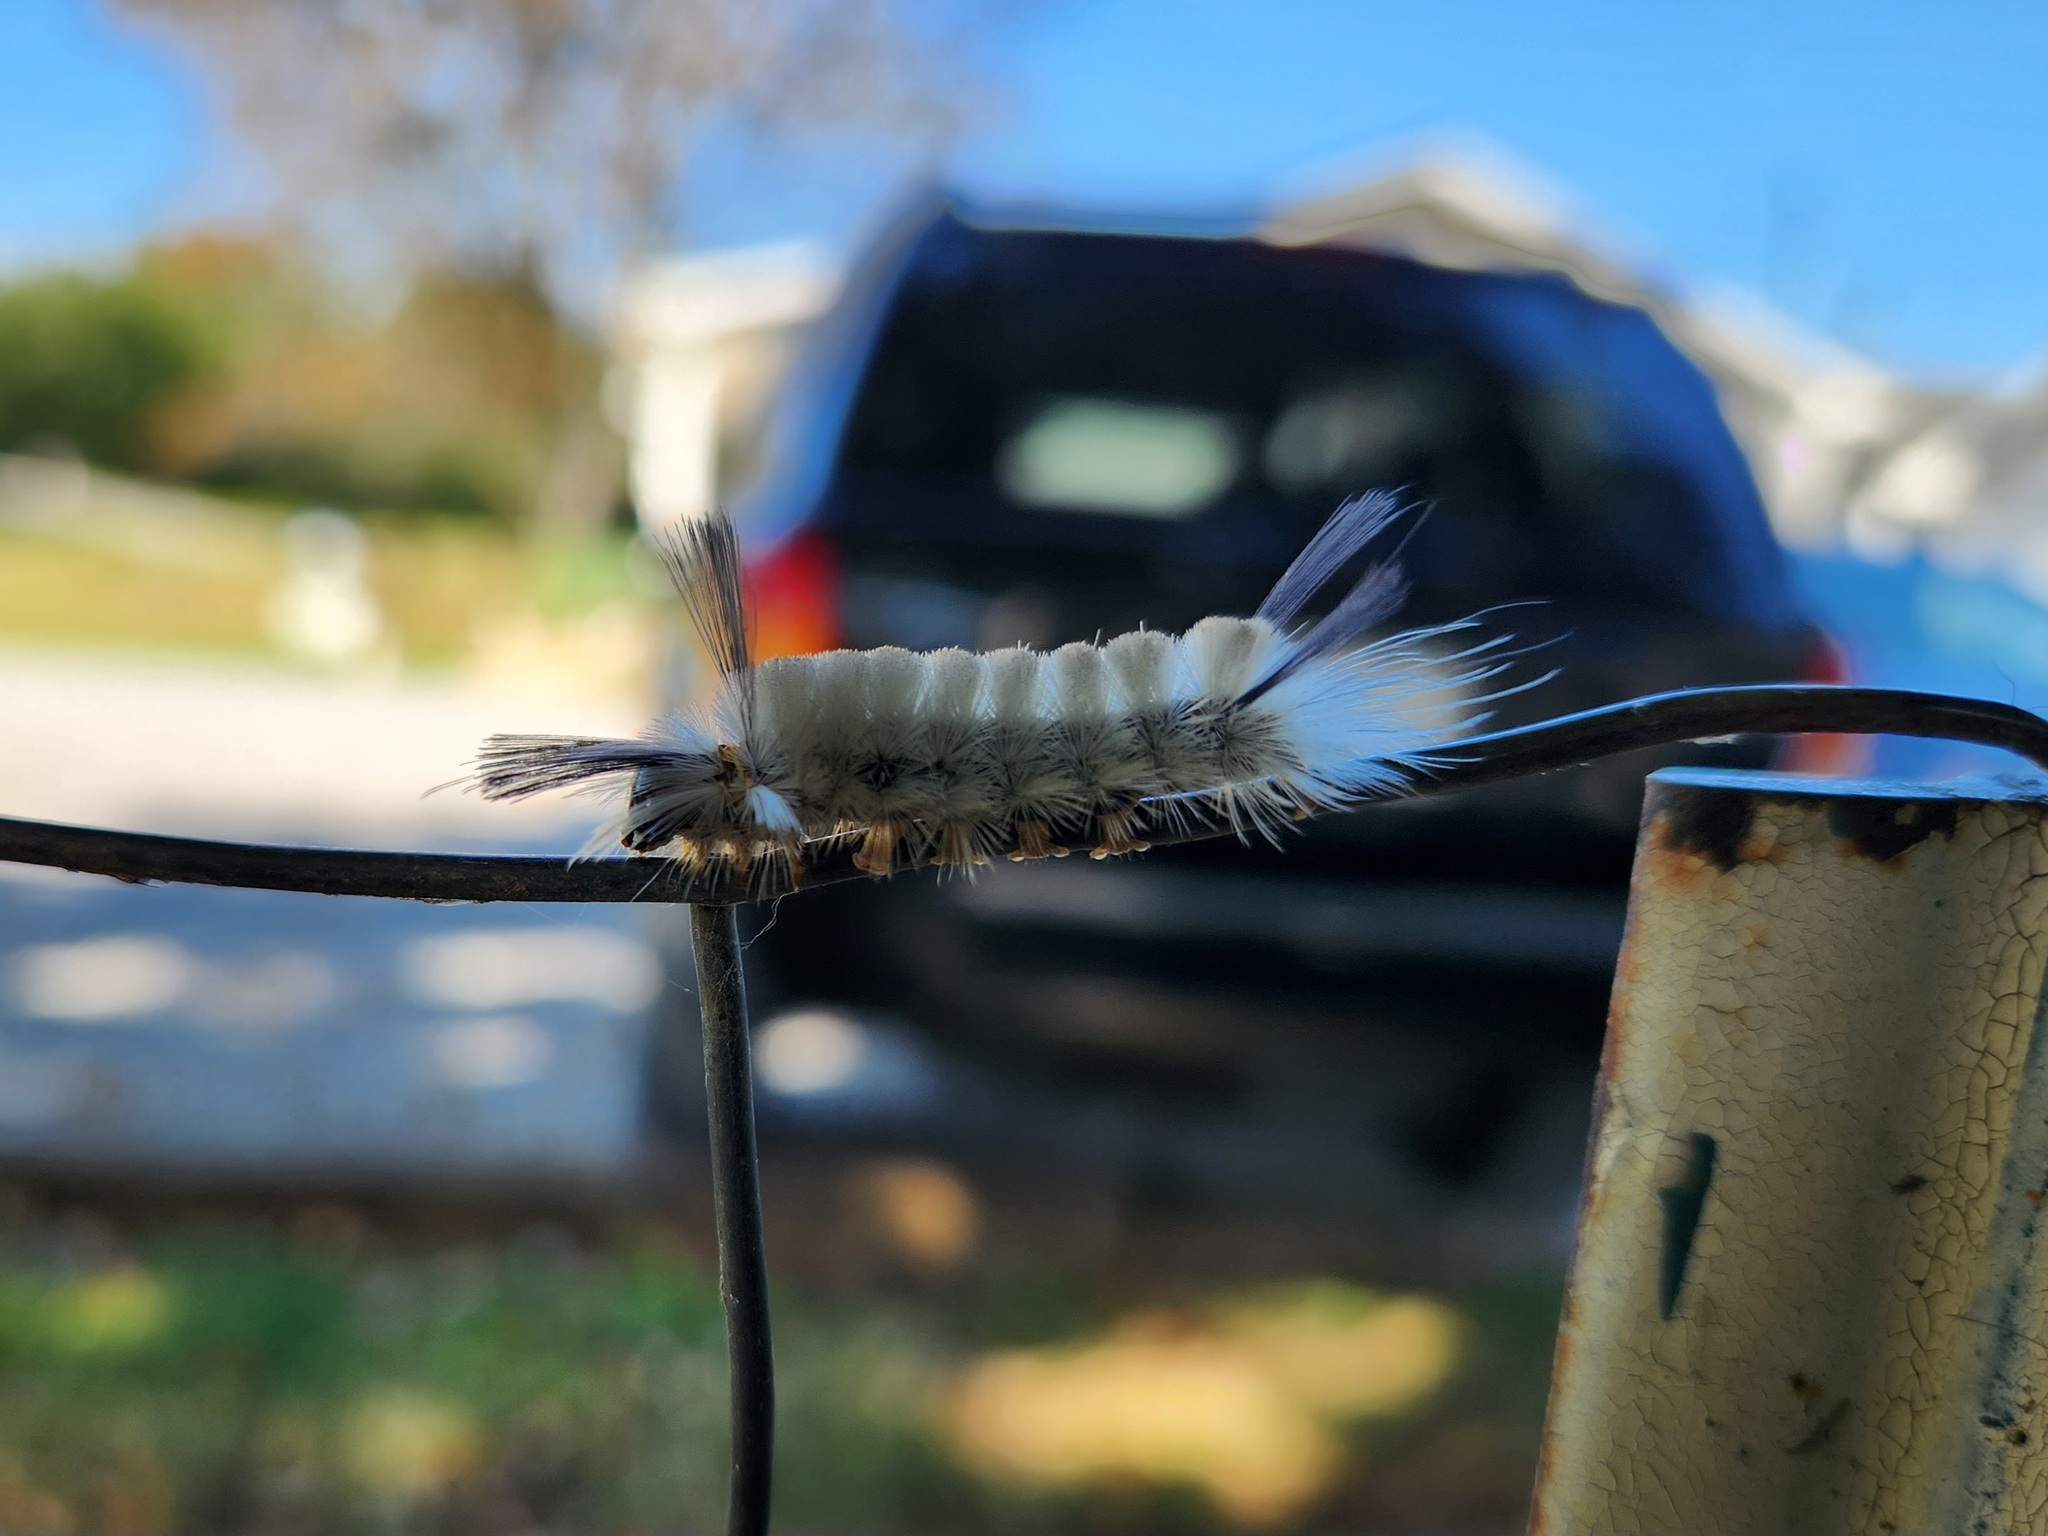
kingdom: Animalia
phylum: Arthropoda
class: Insecta
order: Lepidoptera
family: Erebidae
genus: Halysidota
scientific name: Halysidota tessellaris
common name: Banded tussock moth
